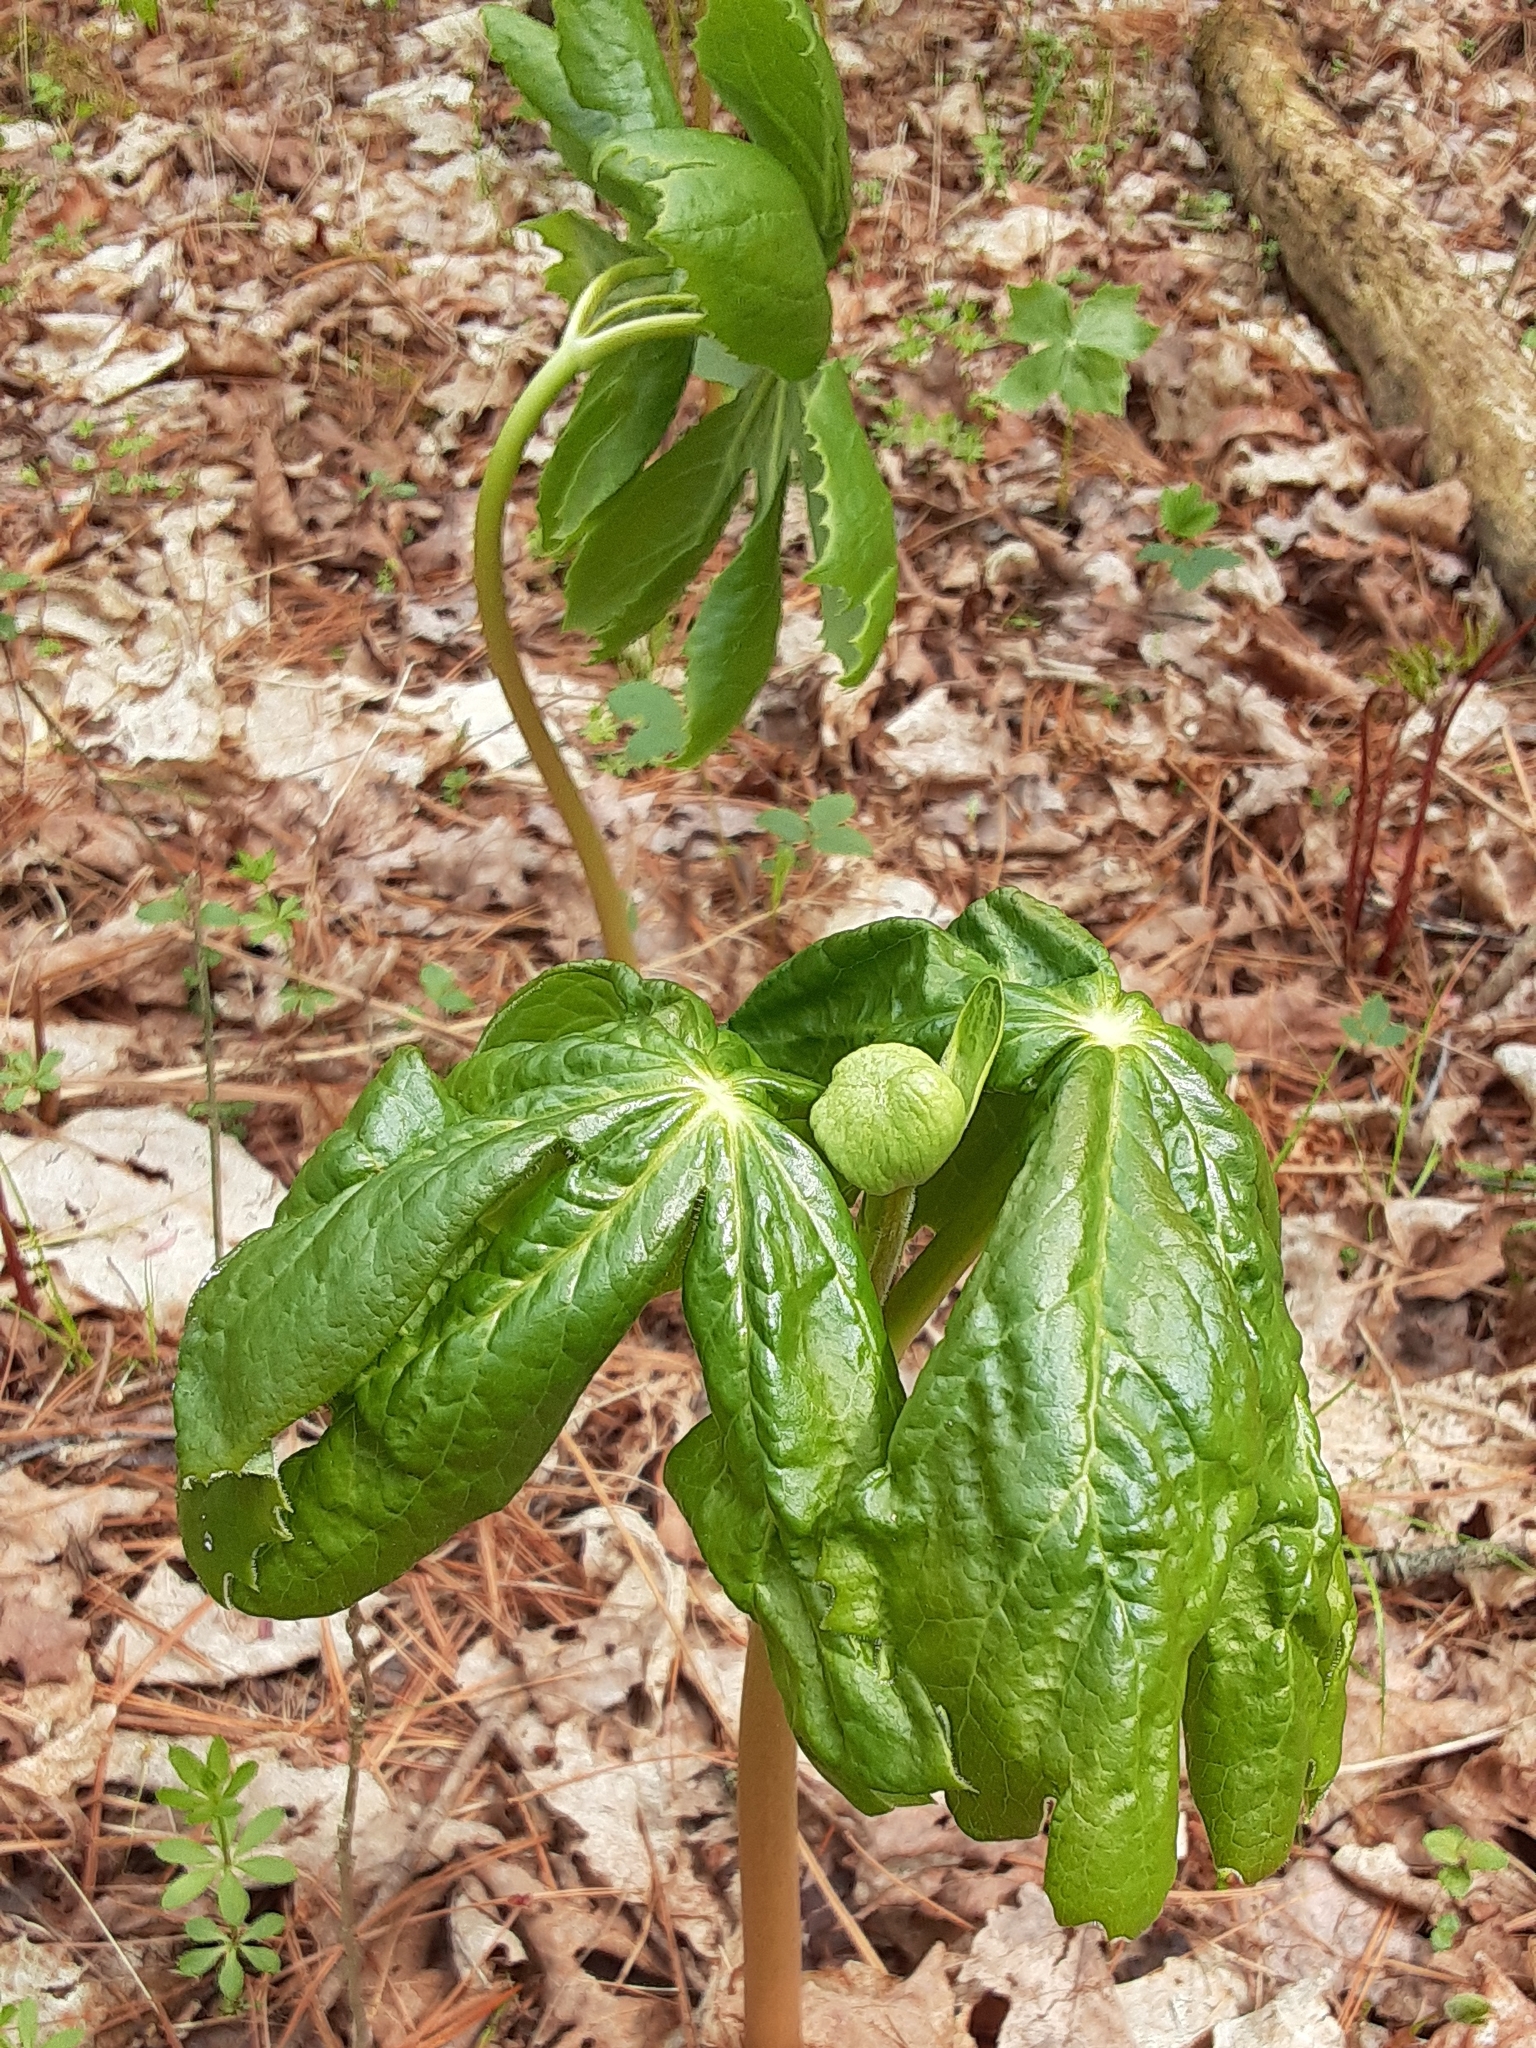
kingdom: Plantae
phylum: Tracheophyta
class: Magnoliopsida
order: Ranunculales
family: Berberidaceae
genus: Podophyllum
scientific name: Podophyllum peltatum
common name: Wild mandrake
